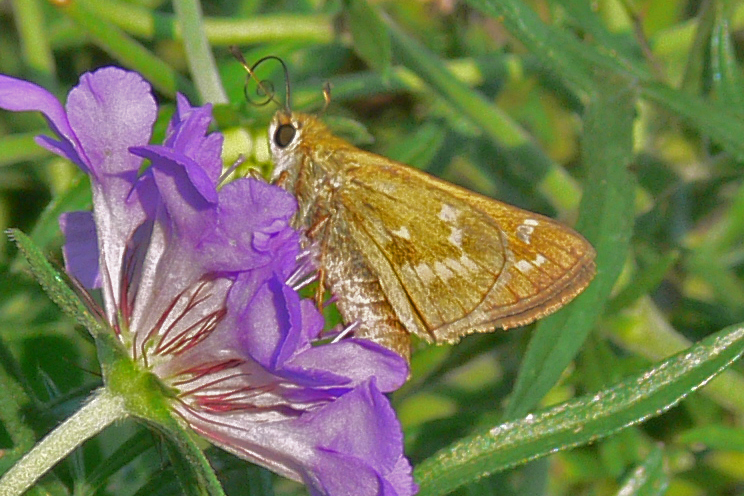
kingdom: Animalia
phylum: Arthropoda
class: Insecta
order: Lepidoptera
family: Hesperiidae
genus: Atalopedes
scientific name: Atalopedes
